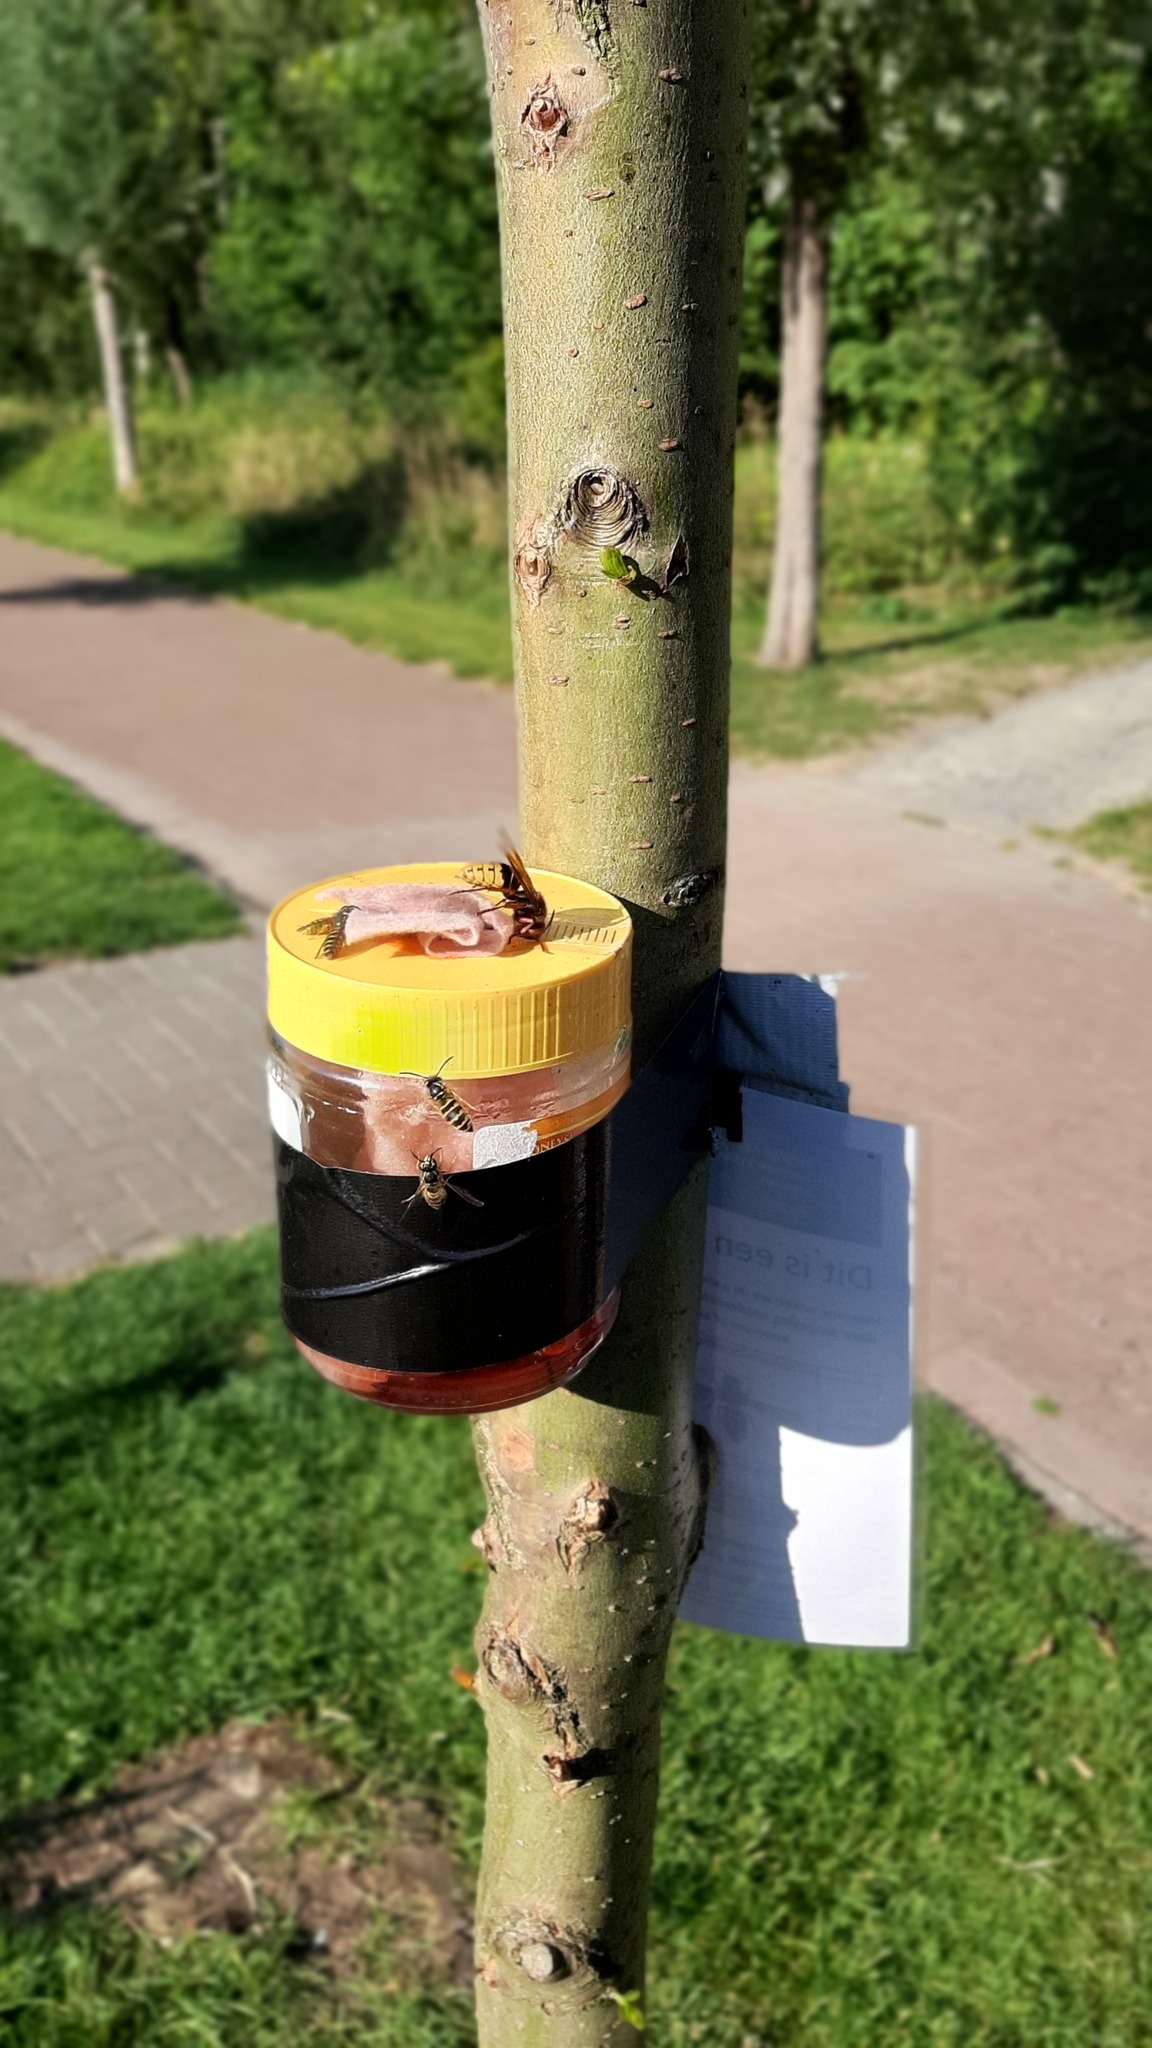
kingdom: Animalia
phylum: Arthropoda
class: Insecta
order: Hymenoptera
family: Vespidae
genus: Vespa
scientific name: Vespa crabro
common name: Hornet
